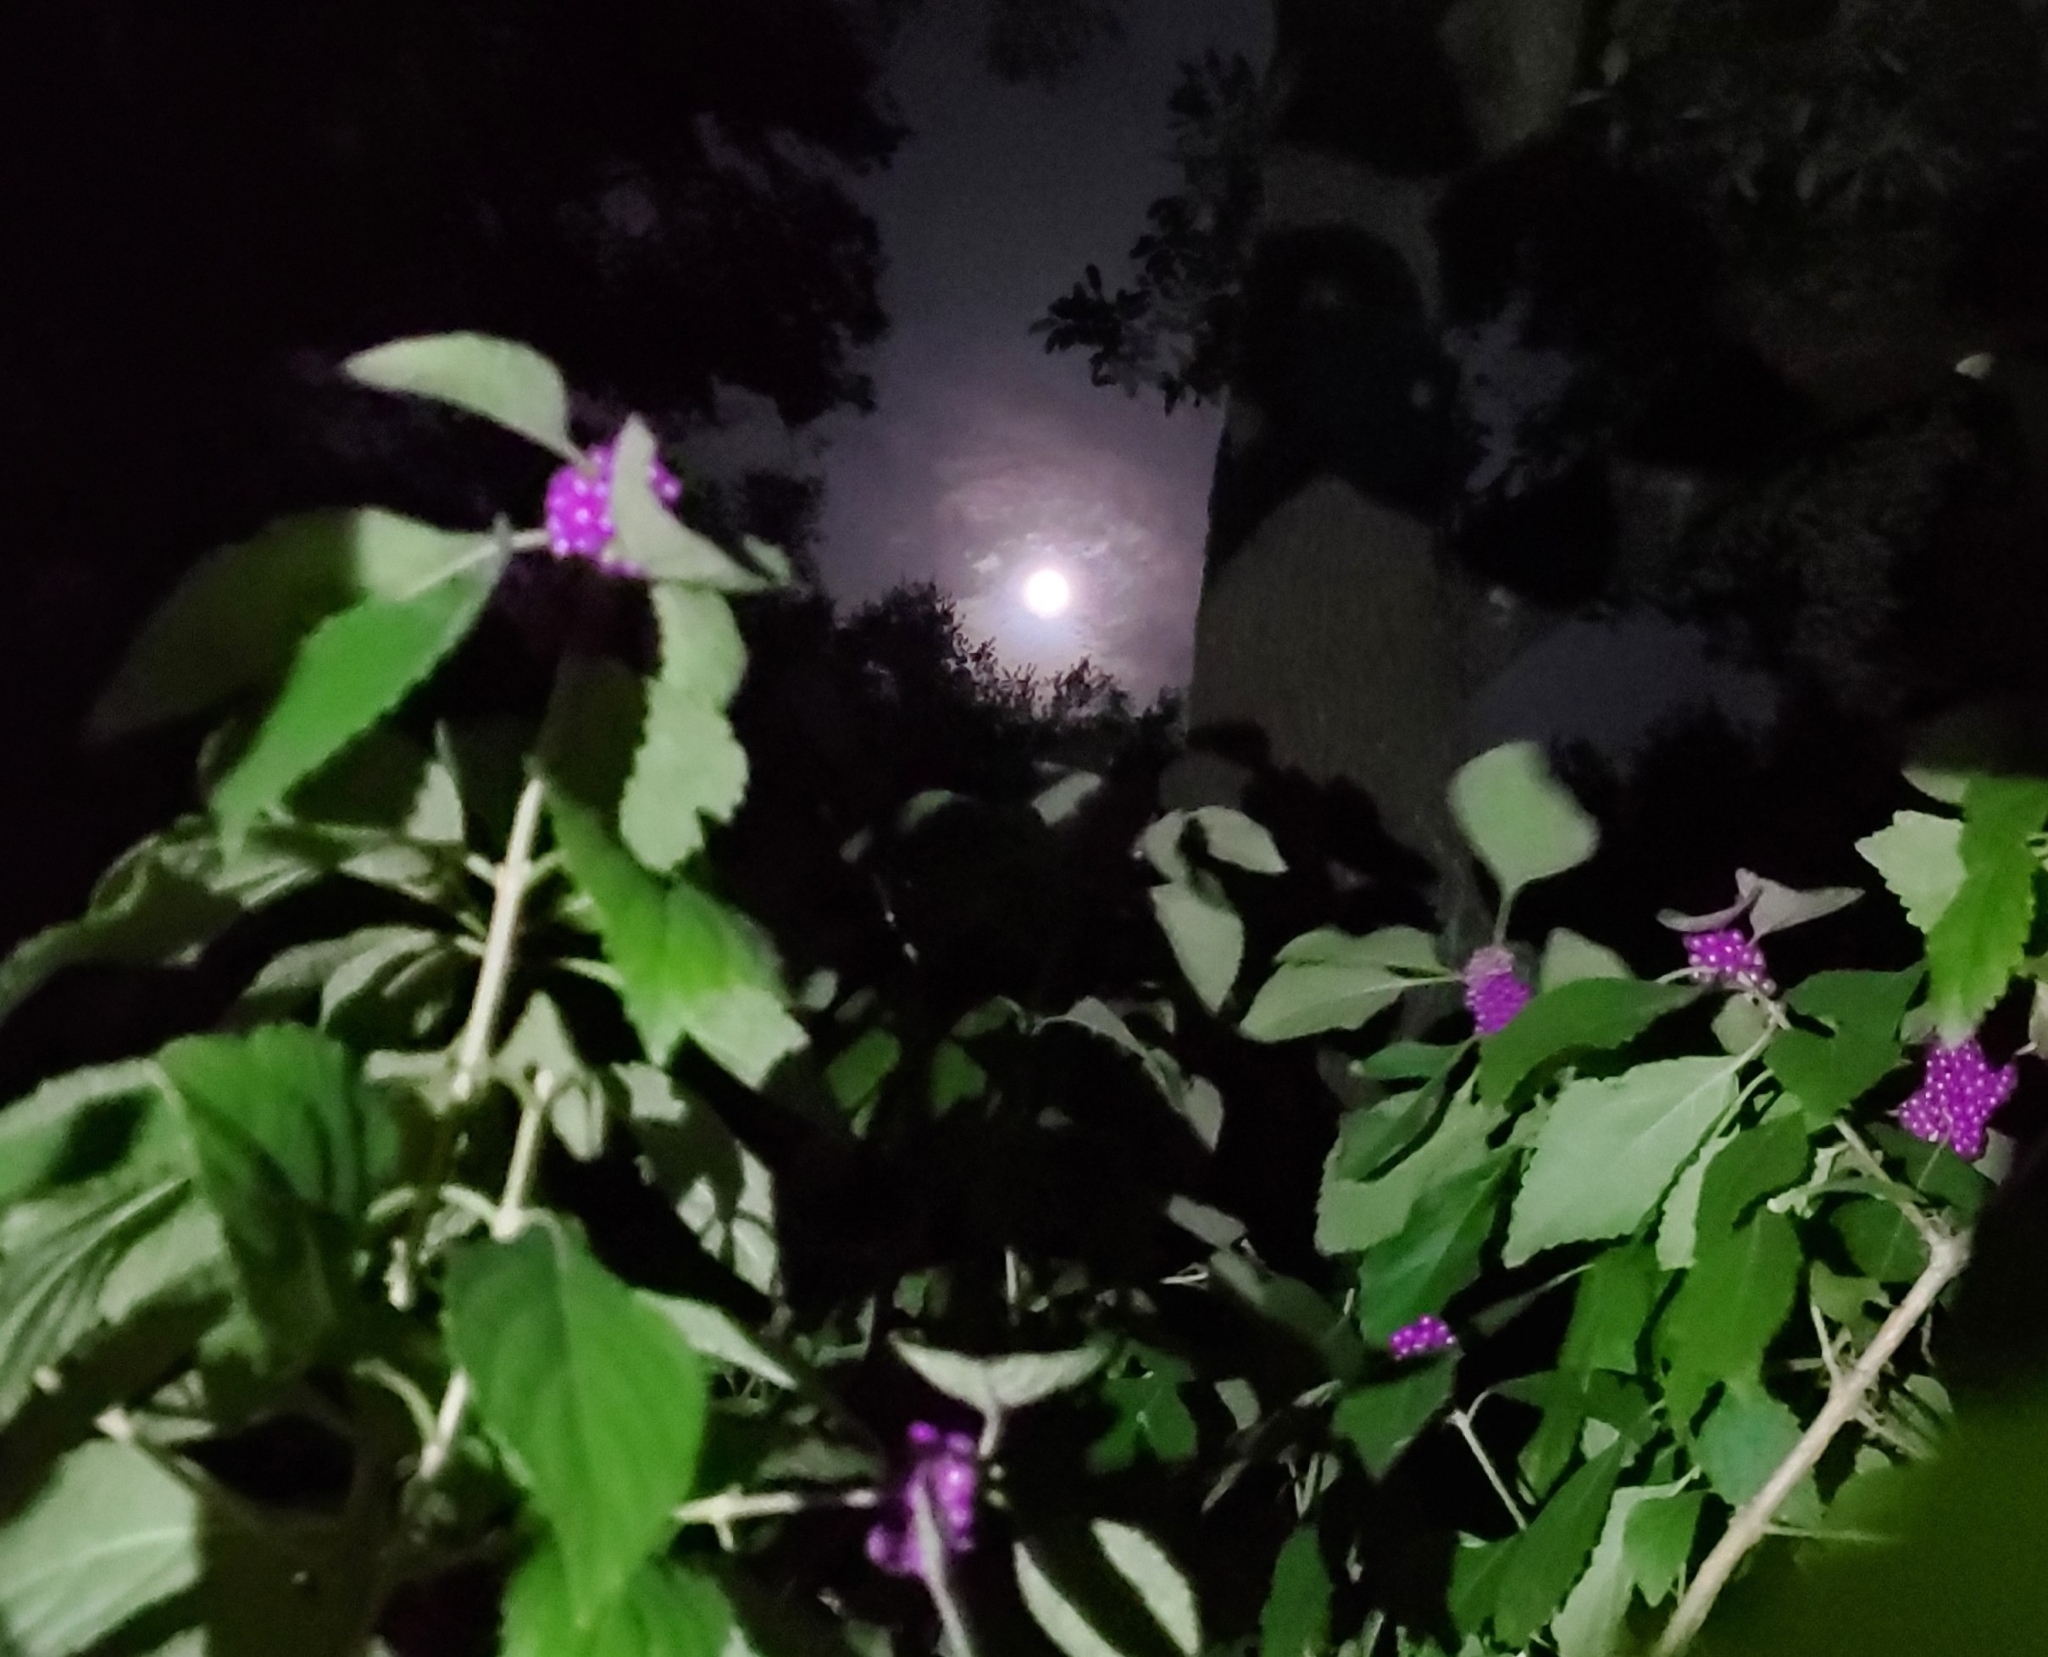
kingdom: Plantae
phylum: Tracheophyta
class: Magnoliopsida
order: Lamiales
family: Lamiaceae
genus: Callicarpa
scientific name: Callicarpa americana
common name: American beautyberry
